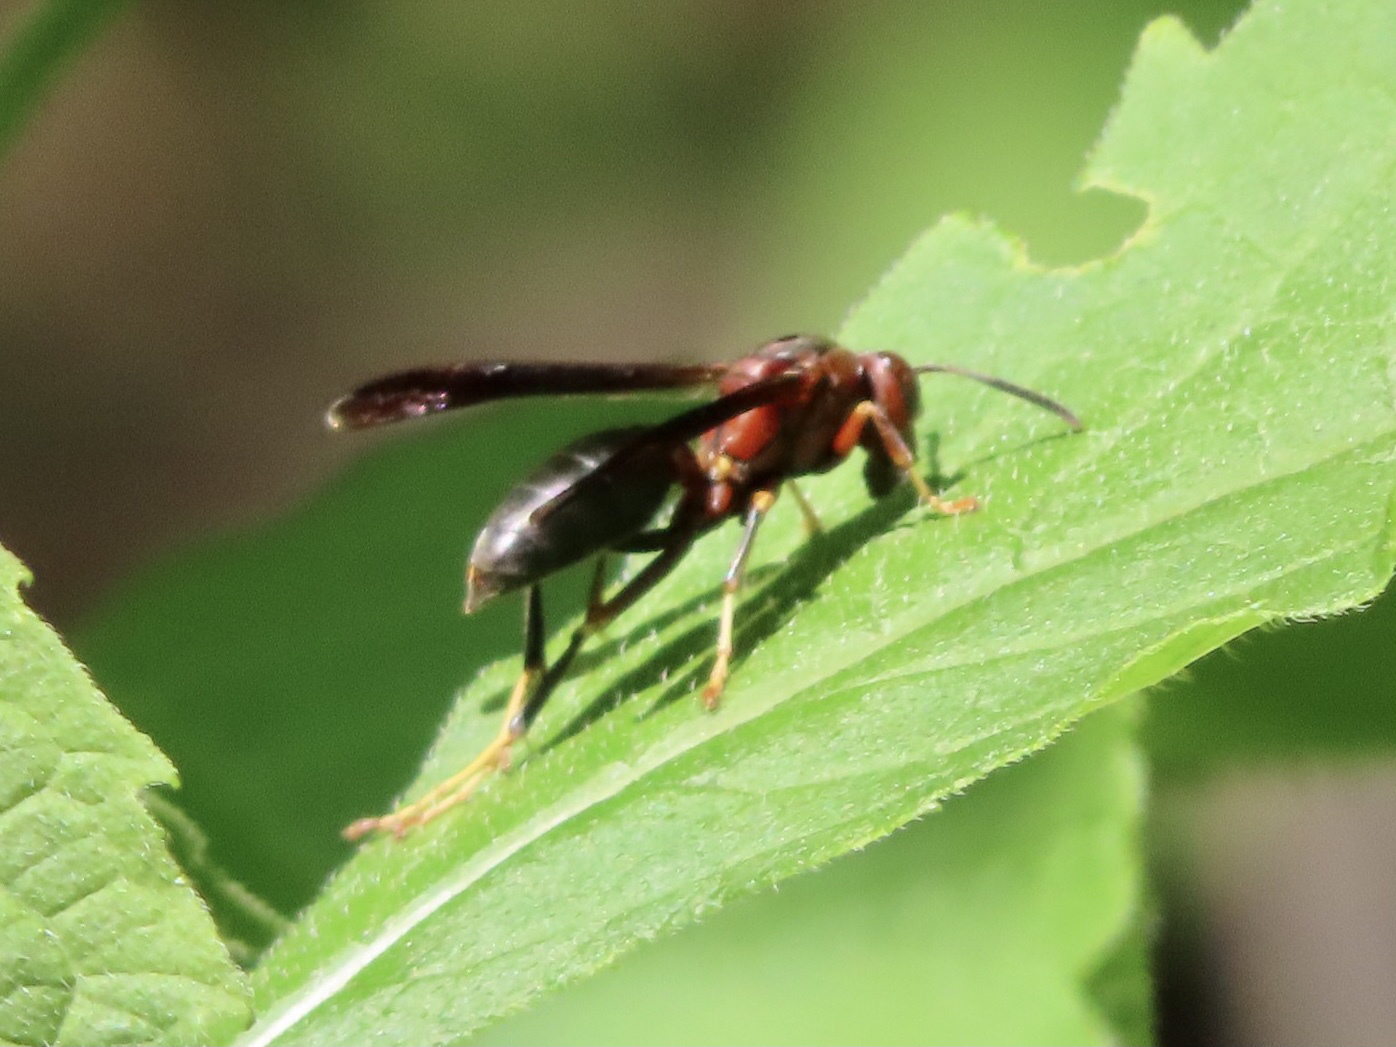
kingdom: Animalia
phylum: Arthropoda
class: Insecta
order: Hymenoptera
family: Eumenidae
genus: Polistes
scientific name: Polistes metricus
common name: Metric paper wasp
